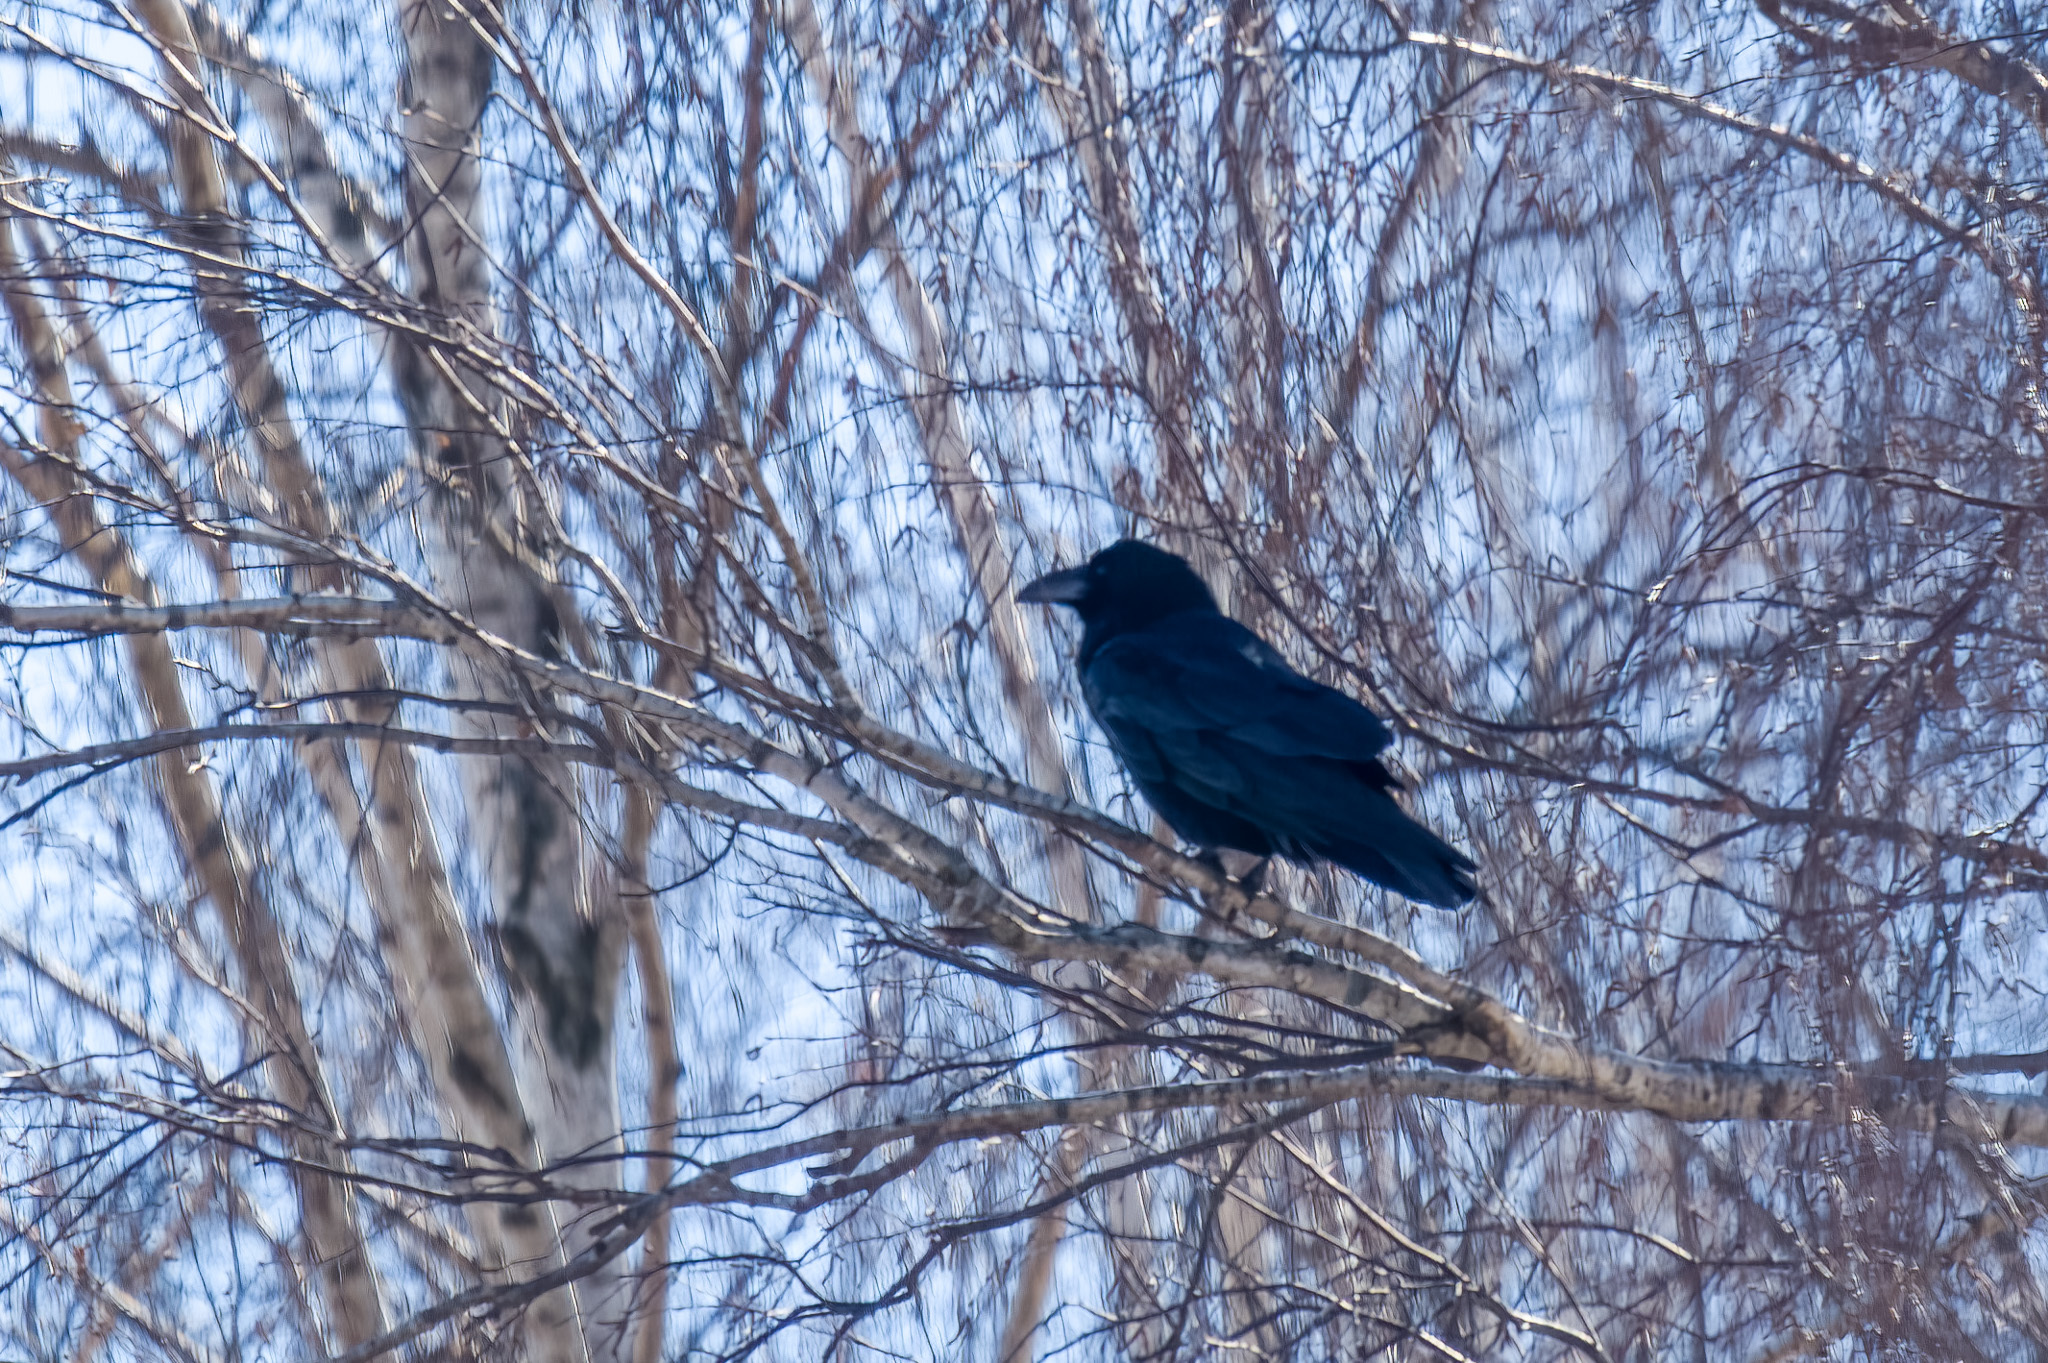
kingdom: Animalia
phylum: Chordata
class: Aves
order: Passeriformes
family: Corvidae
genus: Corvus
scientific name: Corvus corax
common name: Common raven
